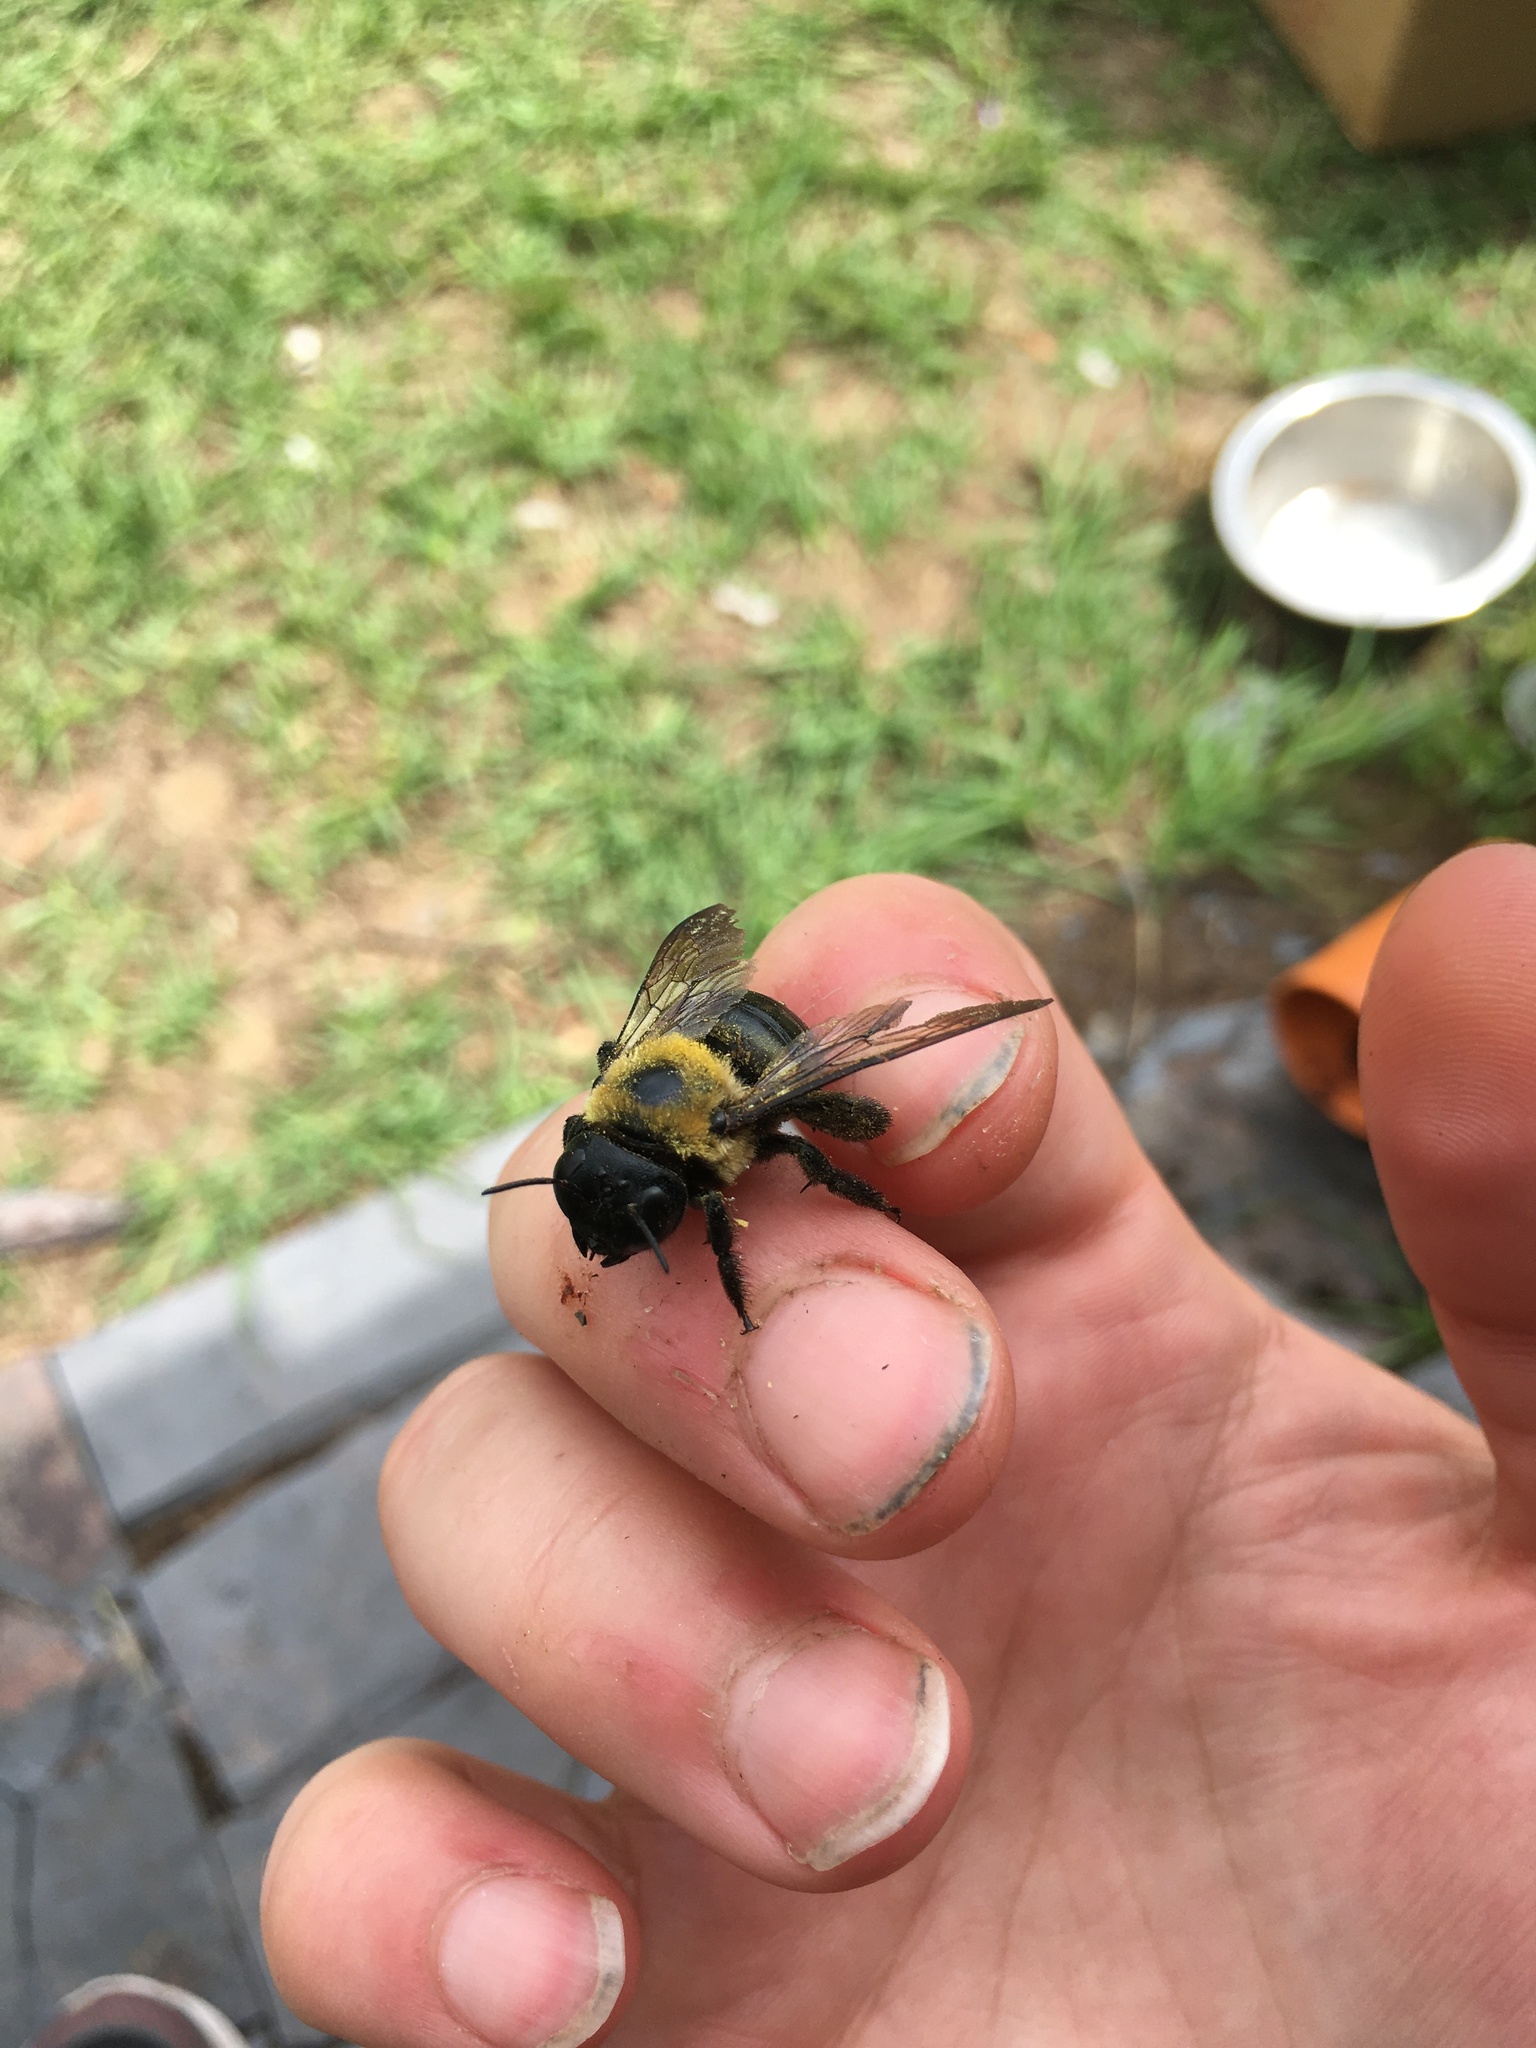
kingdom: Animalia
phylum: Arthropoda
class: Insecta
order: Hymenoptera
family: Apidae
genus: Xylocopa
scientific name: Xylocopa virginica
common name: Carpenter bee
